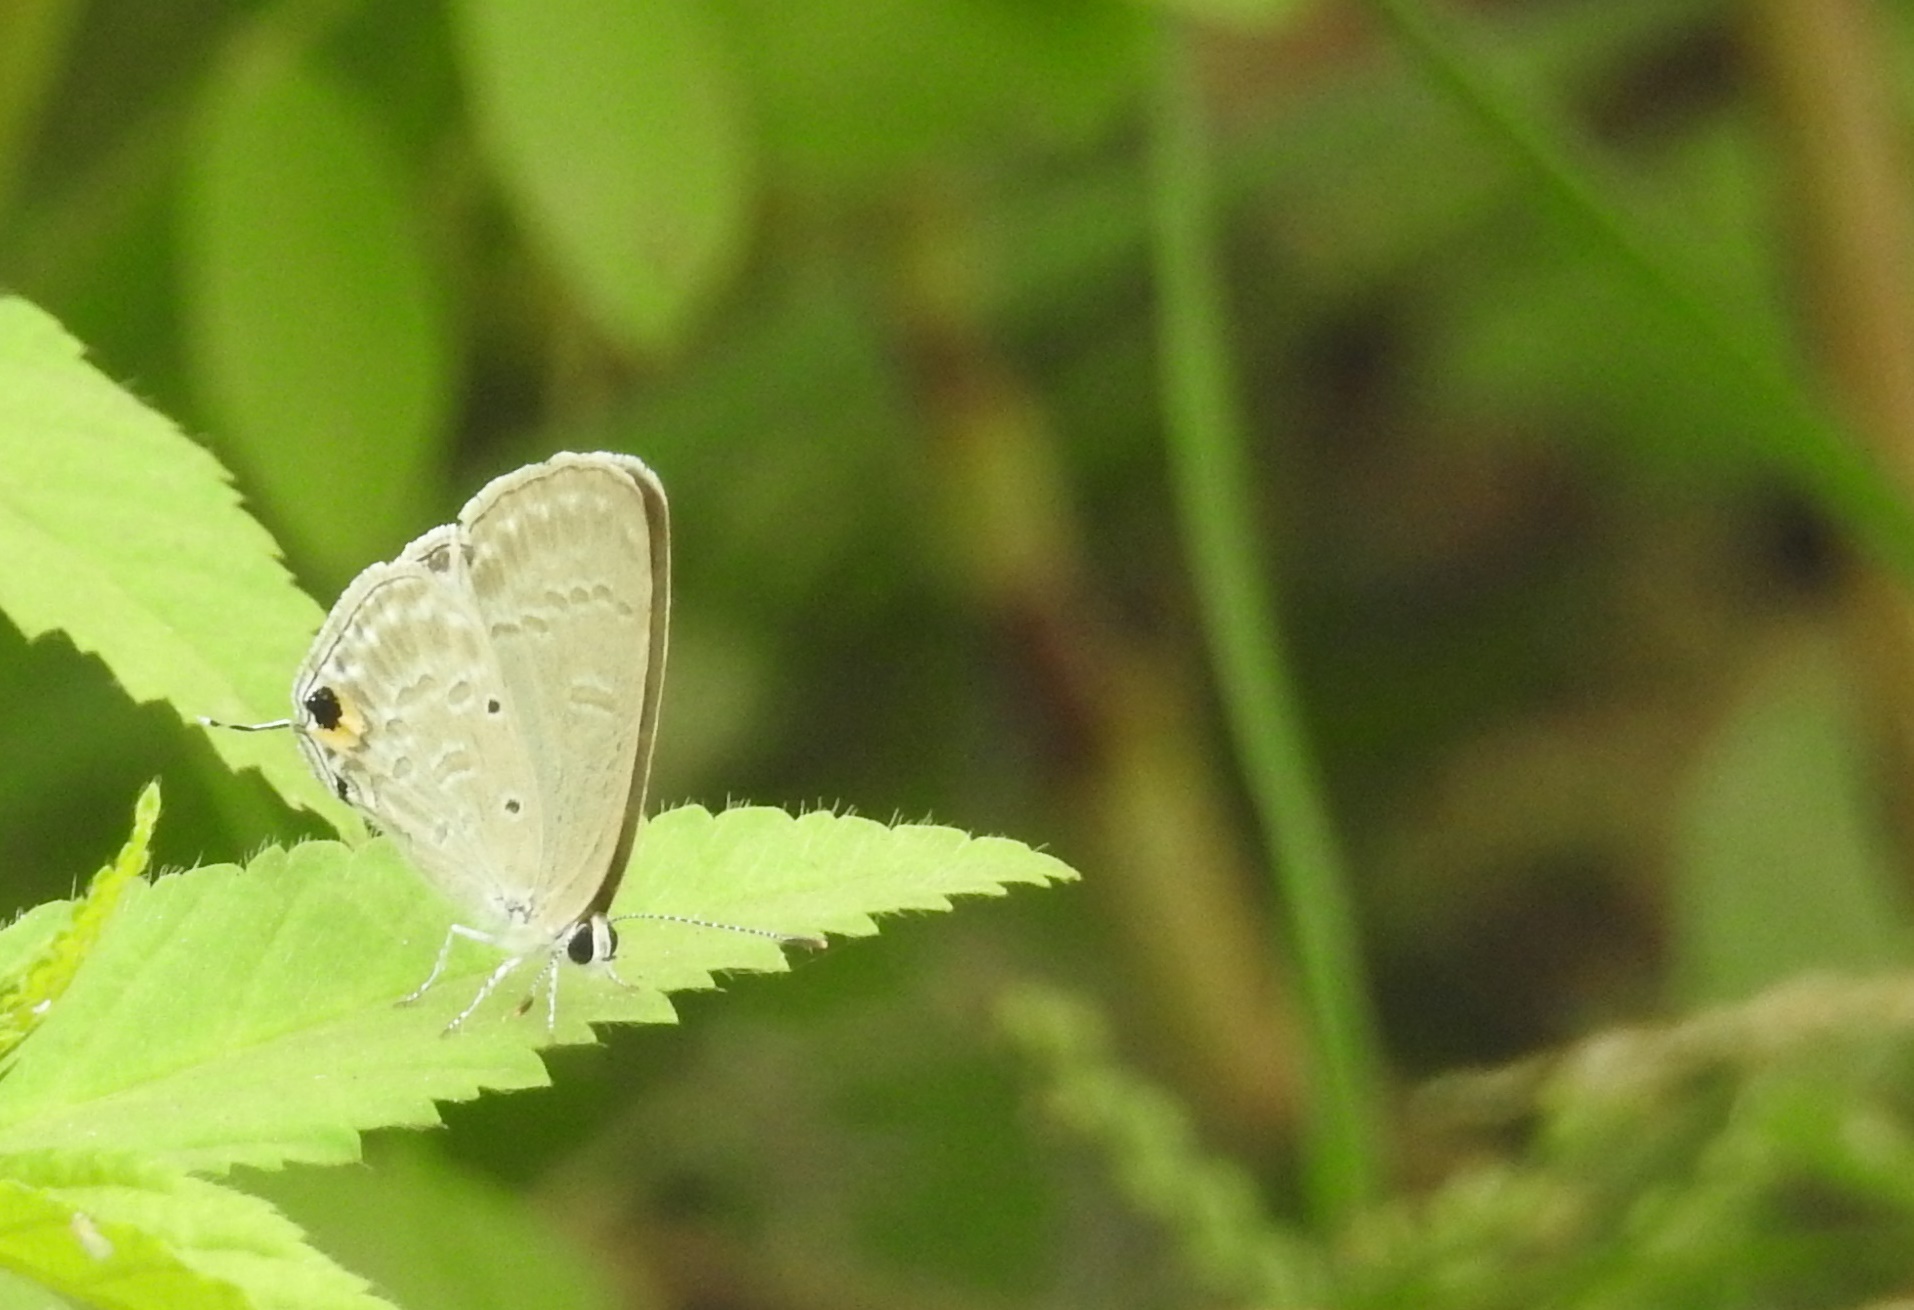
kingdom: Animalia
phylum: Arthropoda
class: Insecta
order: Lepidoptera
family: Lycaenidae
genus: Catochrysops
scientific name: Catochrysops strabo
